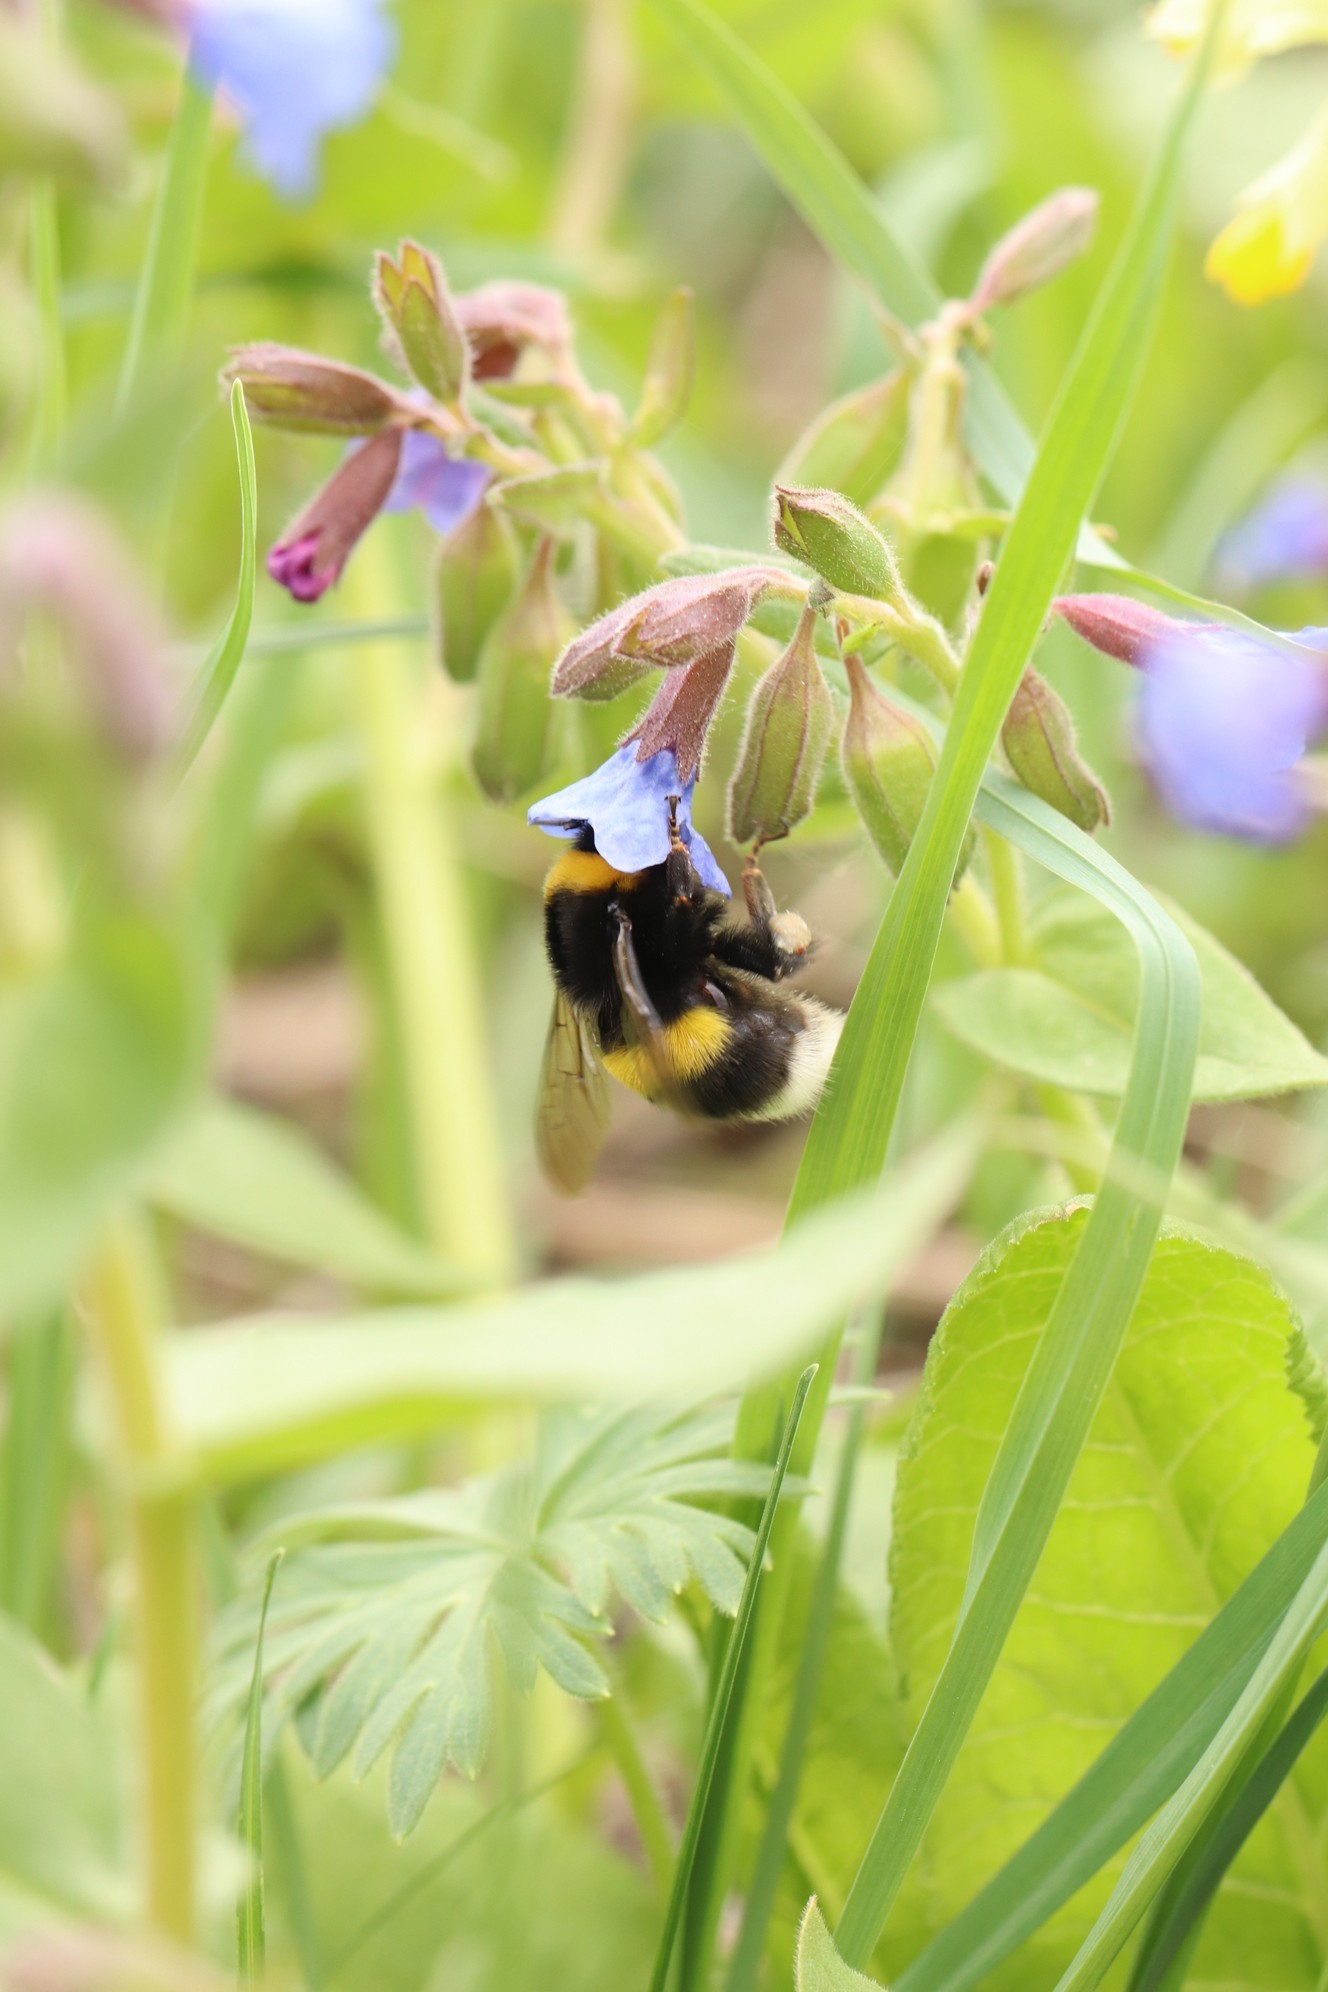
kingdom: Animalia
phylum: Arthropoda
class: Insecta
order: Hymenoptera
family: Apidae
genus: Bombus
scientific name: Bombus
